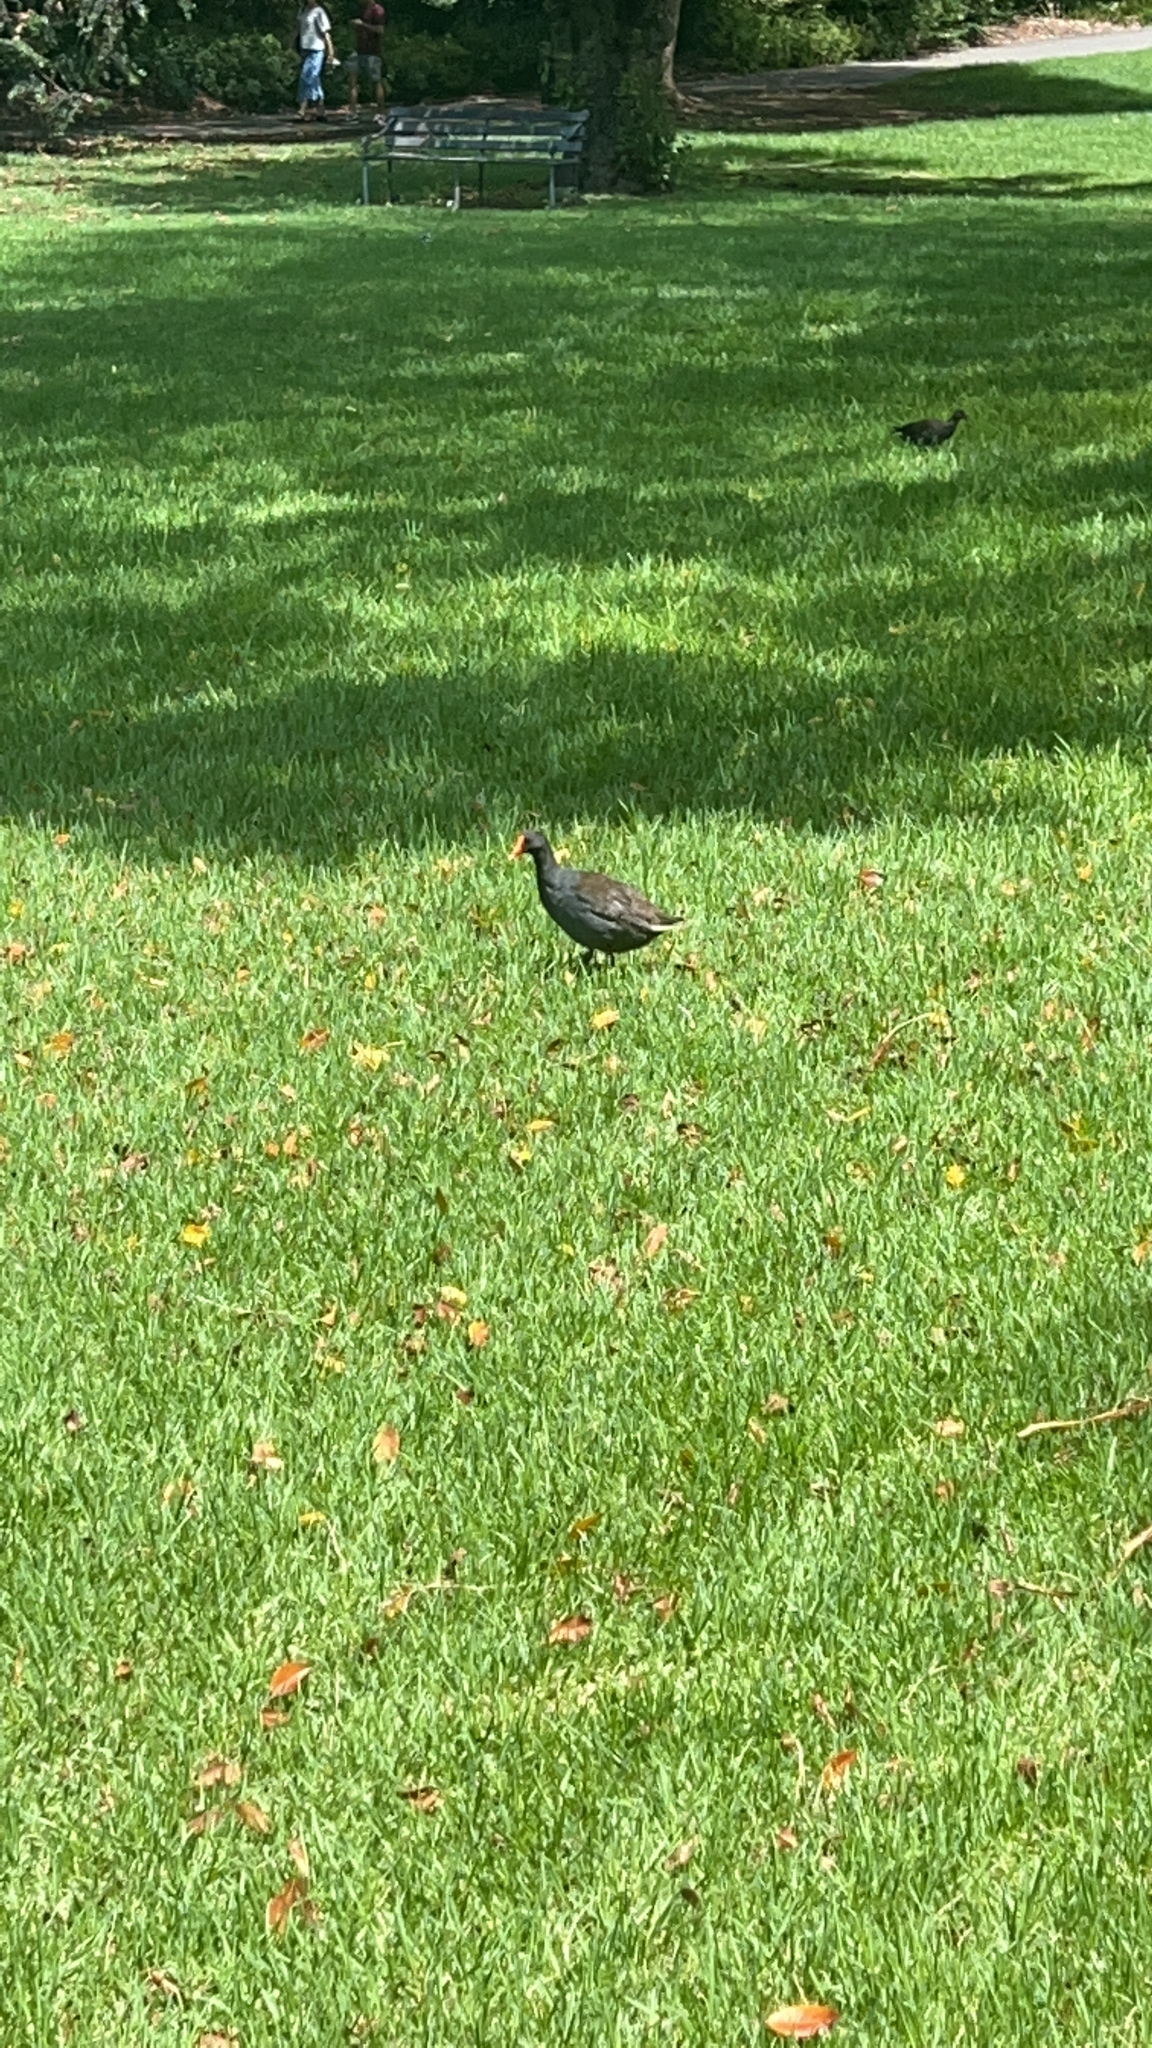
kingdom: Animalia
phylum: Chordata
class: Aves
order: Gruiformes
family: Rallidae
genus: Gallinula
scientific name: Gallinula tenebrosa
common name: Dusky moorhen
